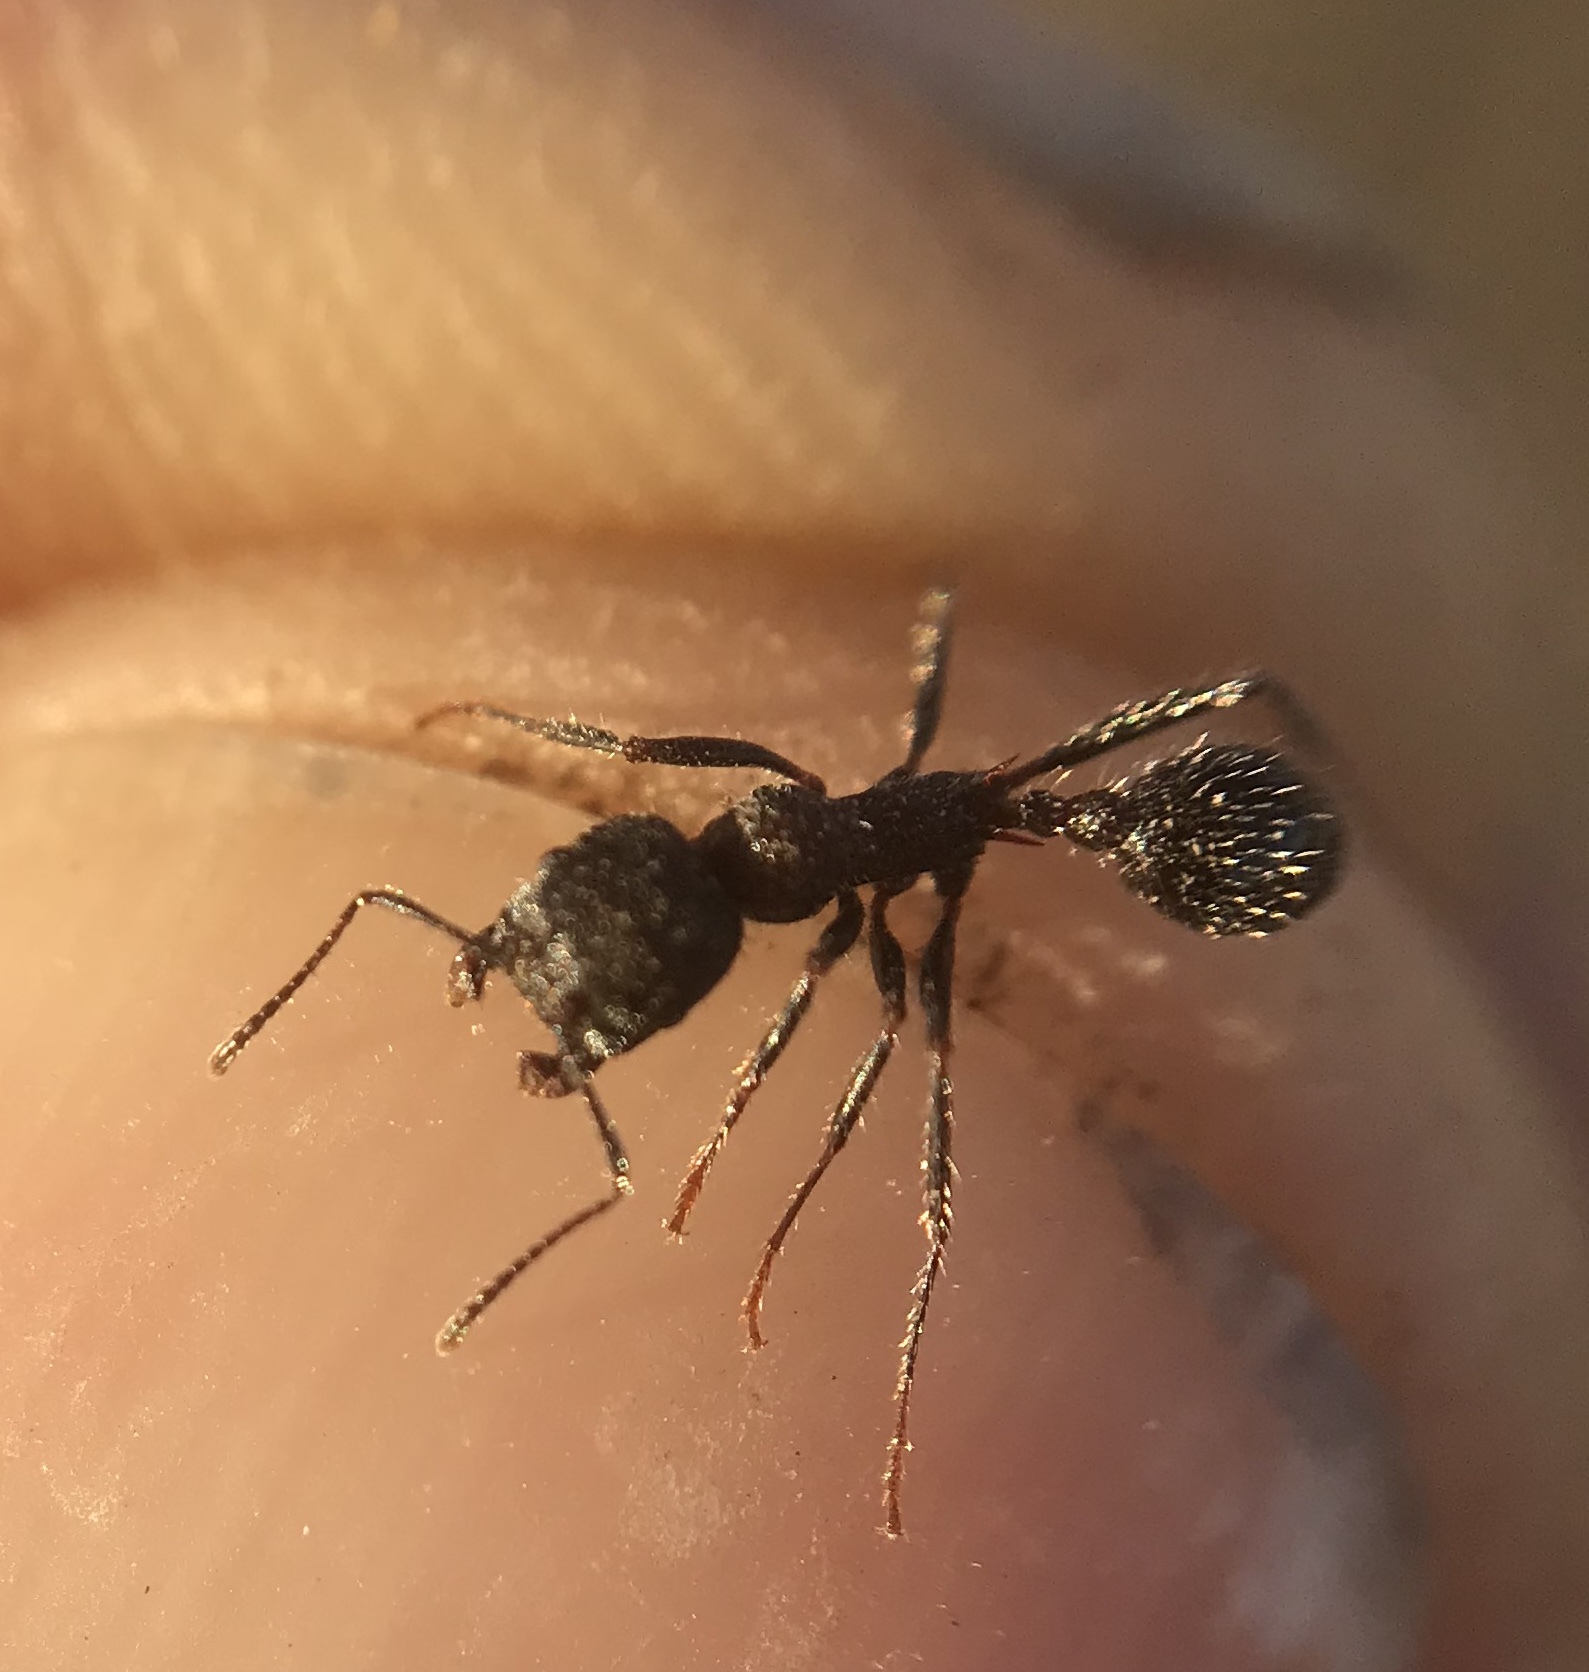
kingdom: Animalia
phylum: Arthropoda
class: Insecta
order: Hymenoptera
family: Formicidae
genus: Veromessor
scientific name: Veromessor andrei
